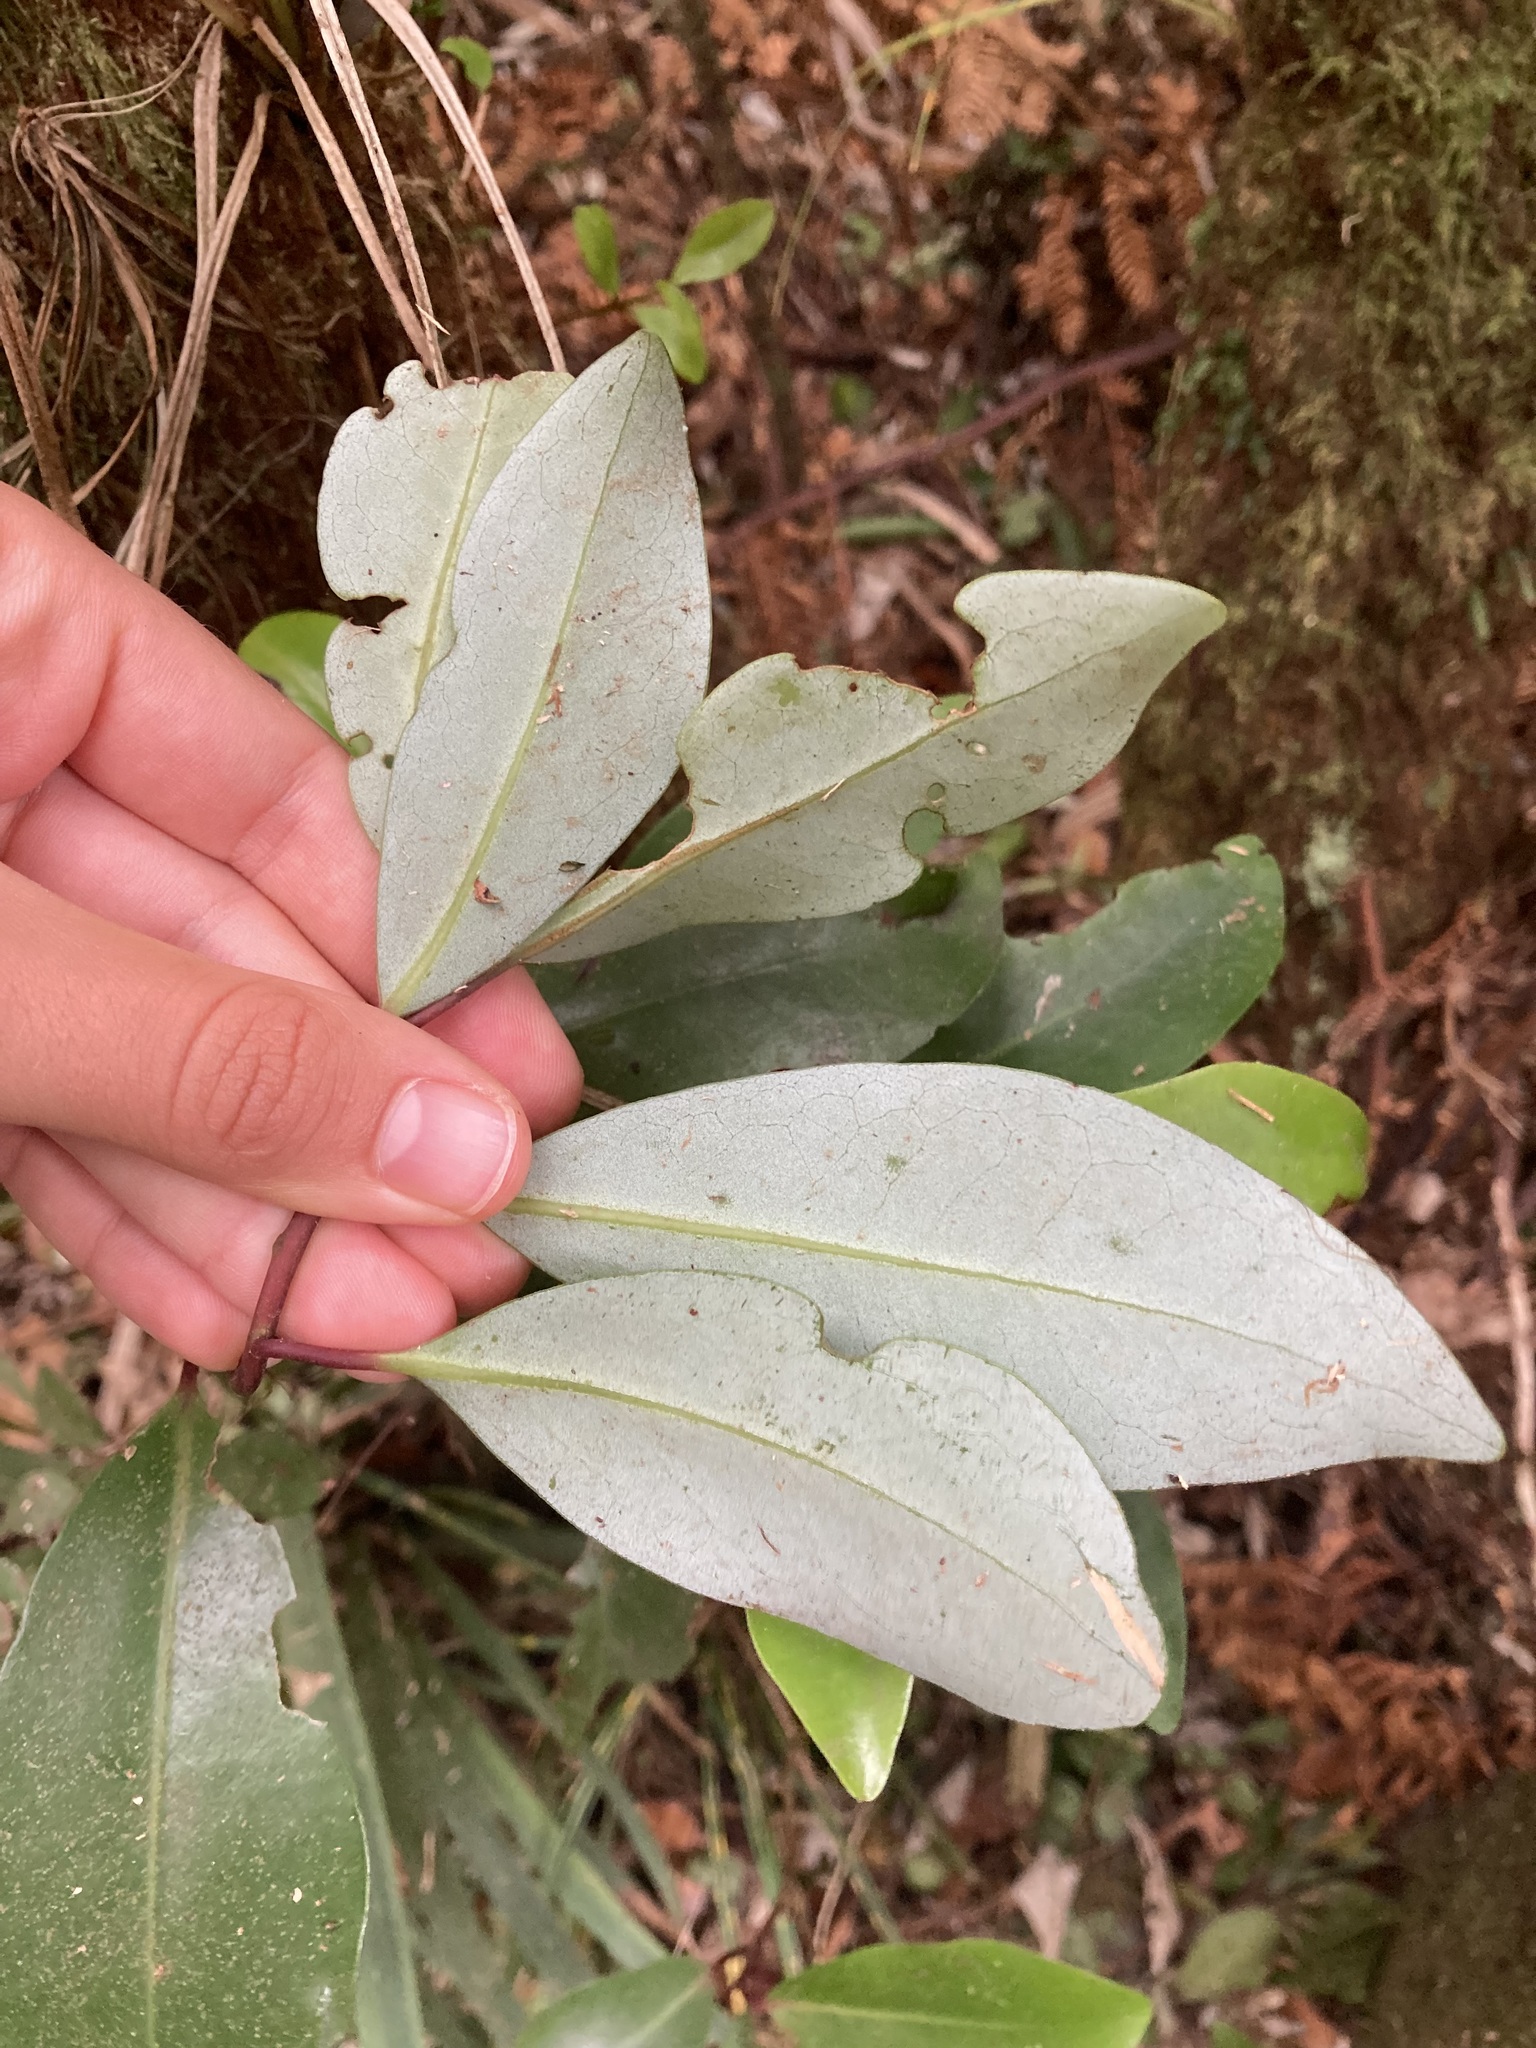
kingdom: Plantae
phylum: Tracheophyta
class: Magnoliopsida
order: Canellales
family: Winteraceae
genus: Pseudowintera
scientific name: Pseudowintera axillaris
